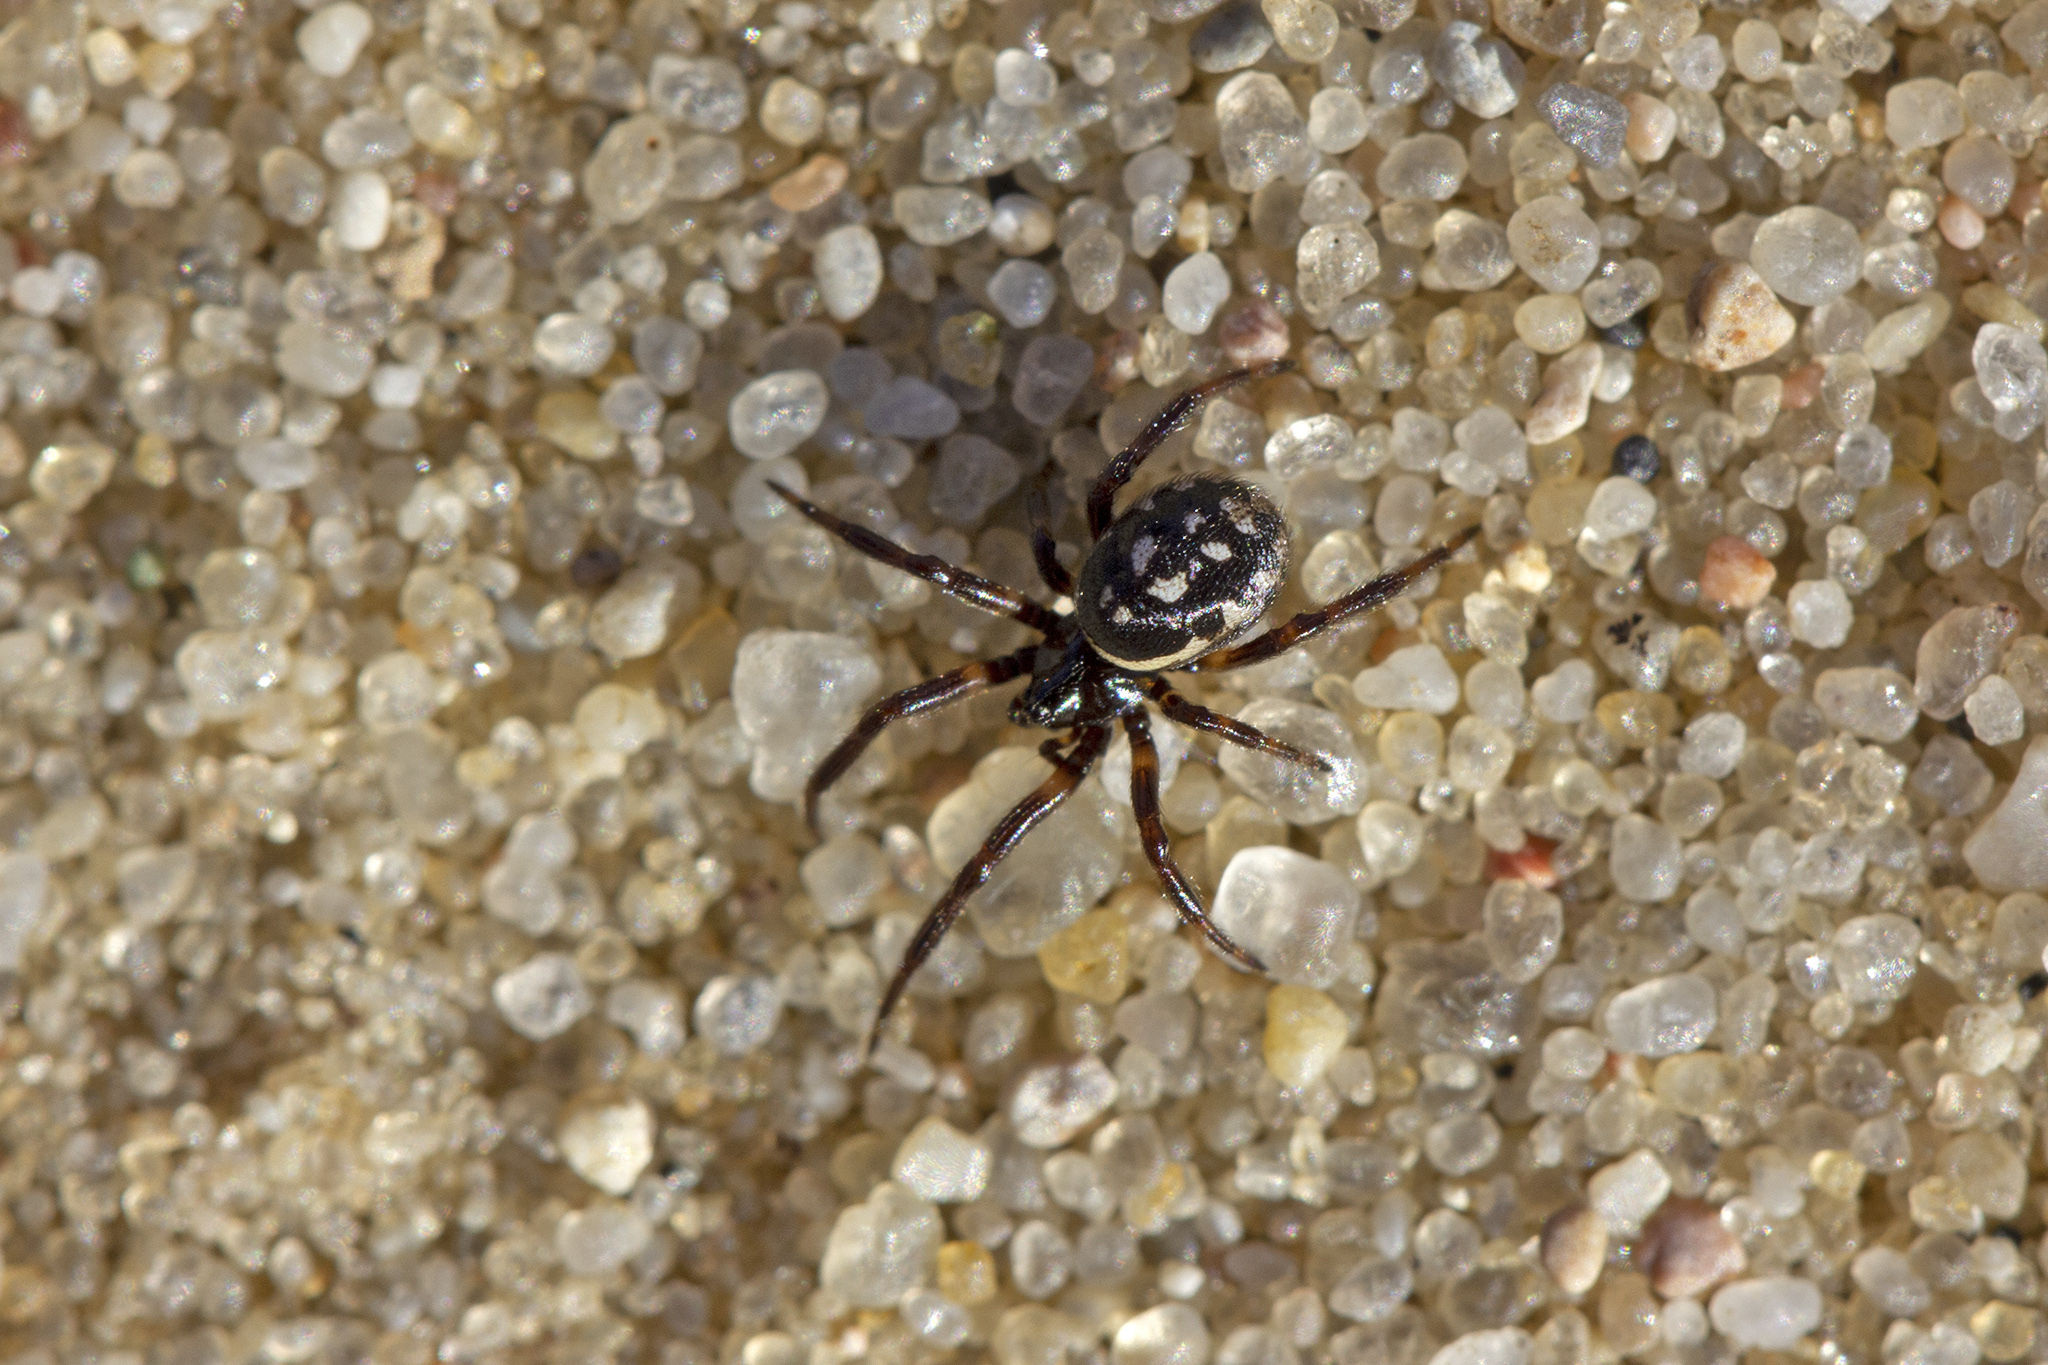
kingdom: Animalia
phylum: Arthropoda
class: Arachnida
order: Araneae
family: Theridiidae
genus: Steatoda
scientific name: Steatoda albomaculata
